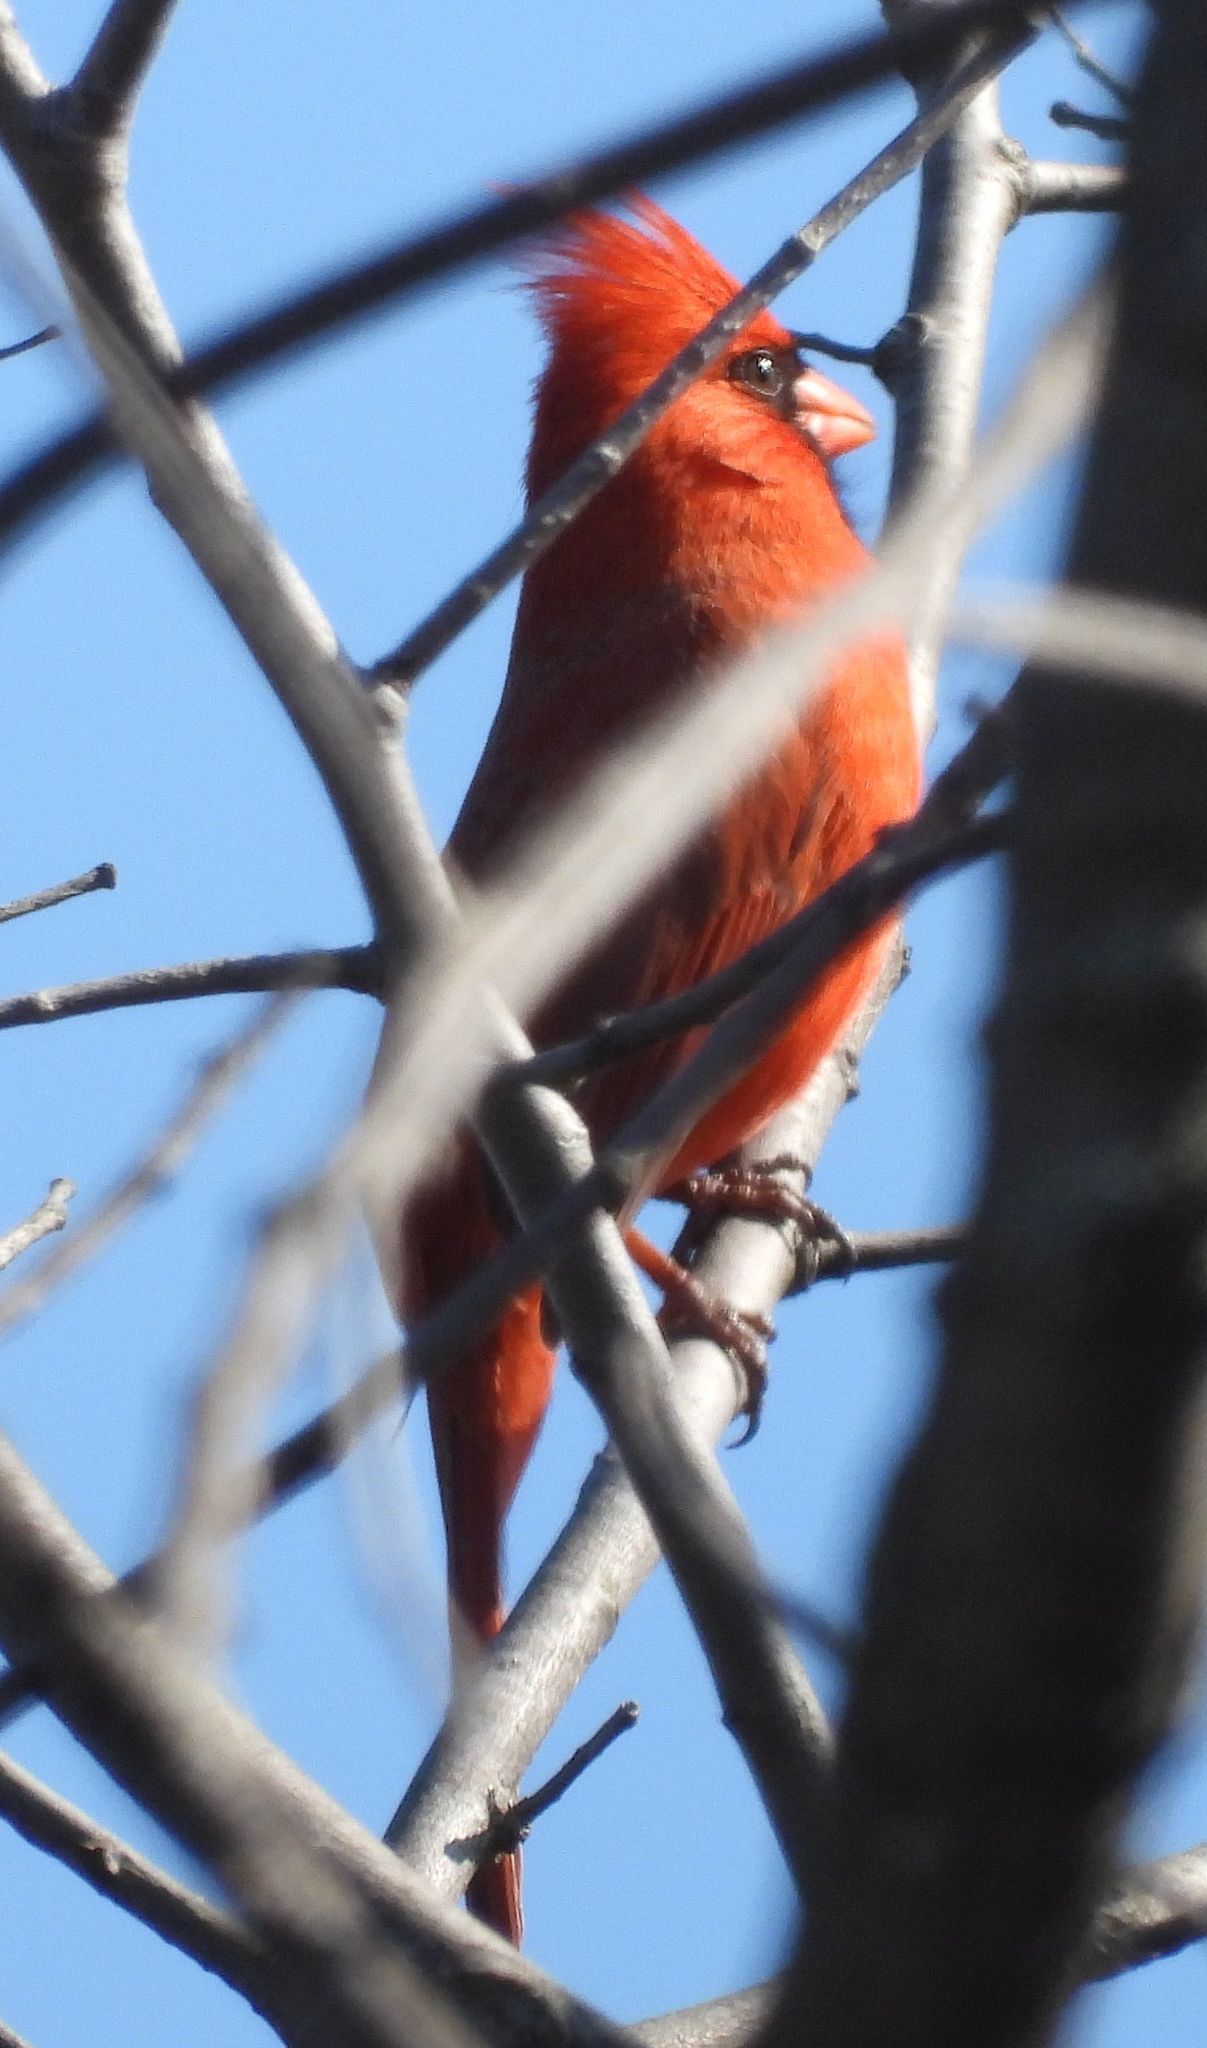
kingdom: Animalia
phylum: Chordata
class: Aves
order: Passeriformes
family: Cardinalidae
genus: Cardinalis
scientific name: Cardinalis cardinalis
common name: Northern cardinal
